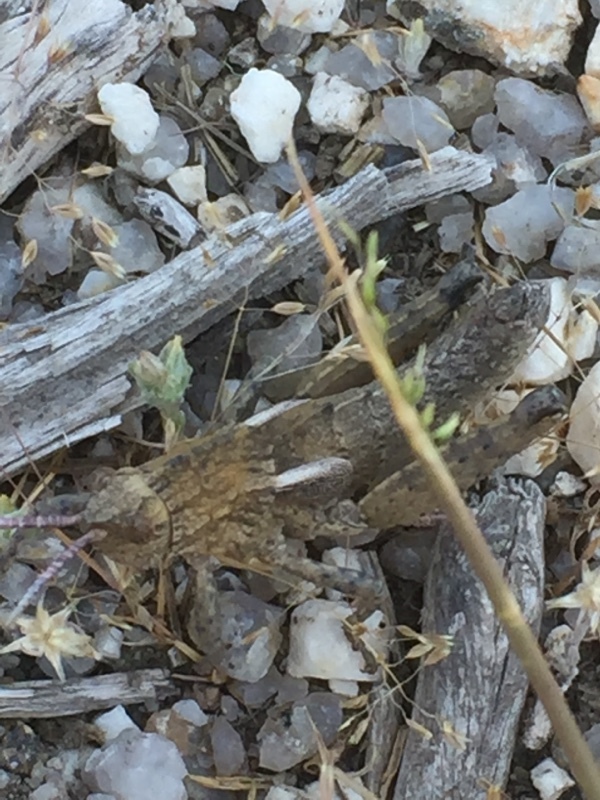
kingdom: Animalia
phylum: Arthropoda
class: Insecta
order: Orthoptera
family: Pamphagidae
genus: Eumigus
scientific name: Eumigus ayresi
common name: Ayres' stone grasshopper
